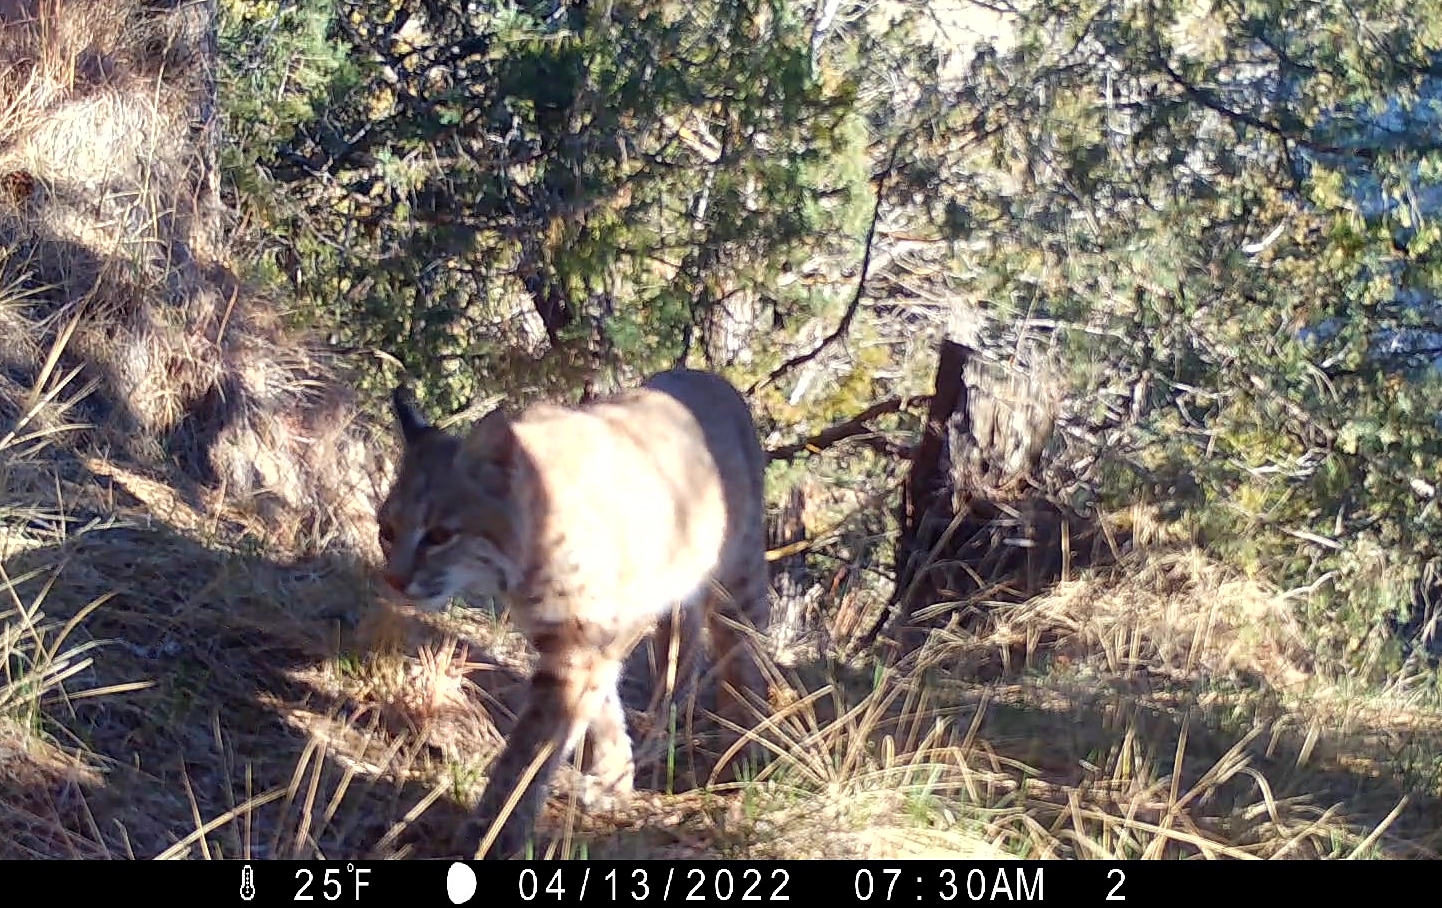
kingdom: Animalia
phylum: Chordata
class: Mammalia
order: Carnivora
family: Felidae
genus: Lynx
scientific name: Lynx rufus
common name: Bobcat
